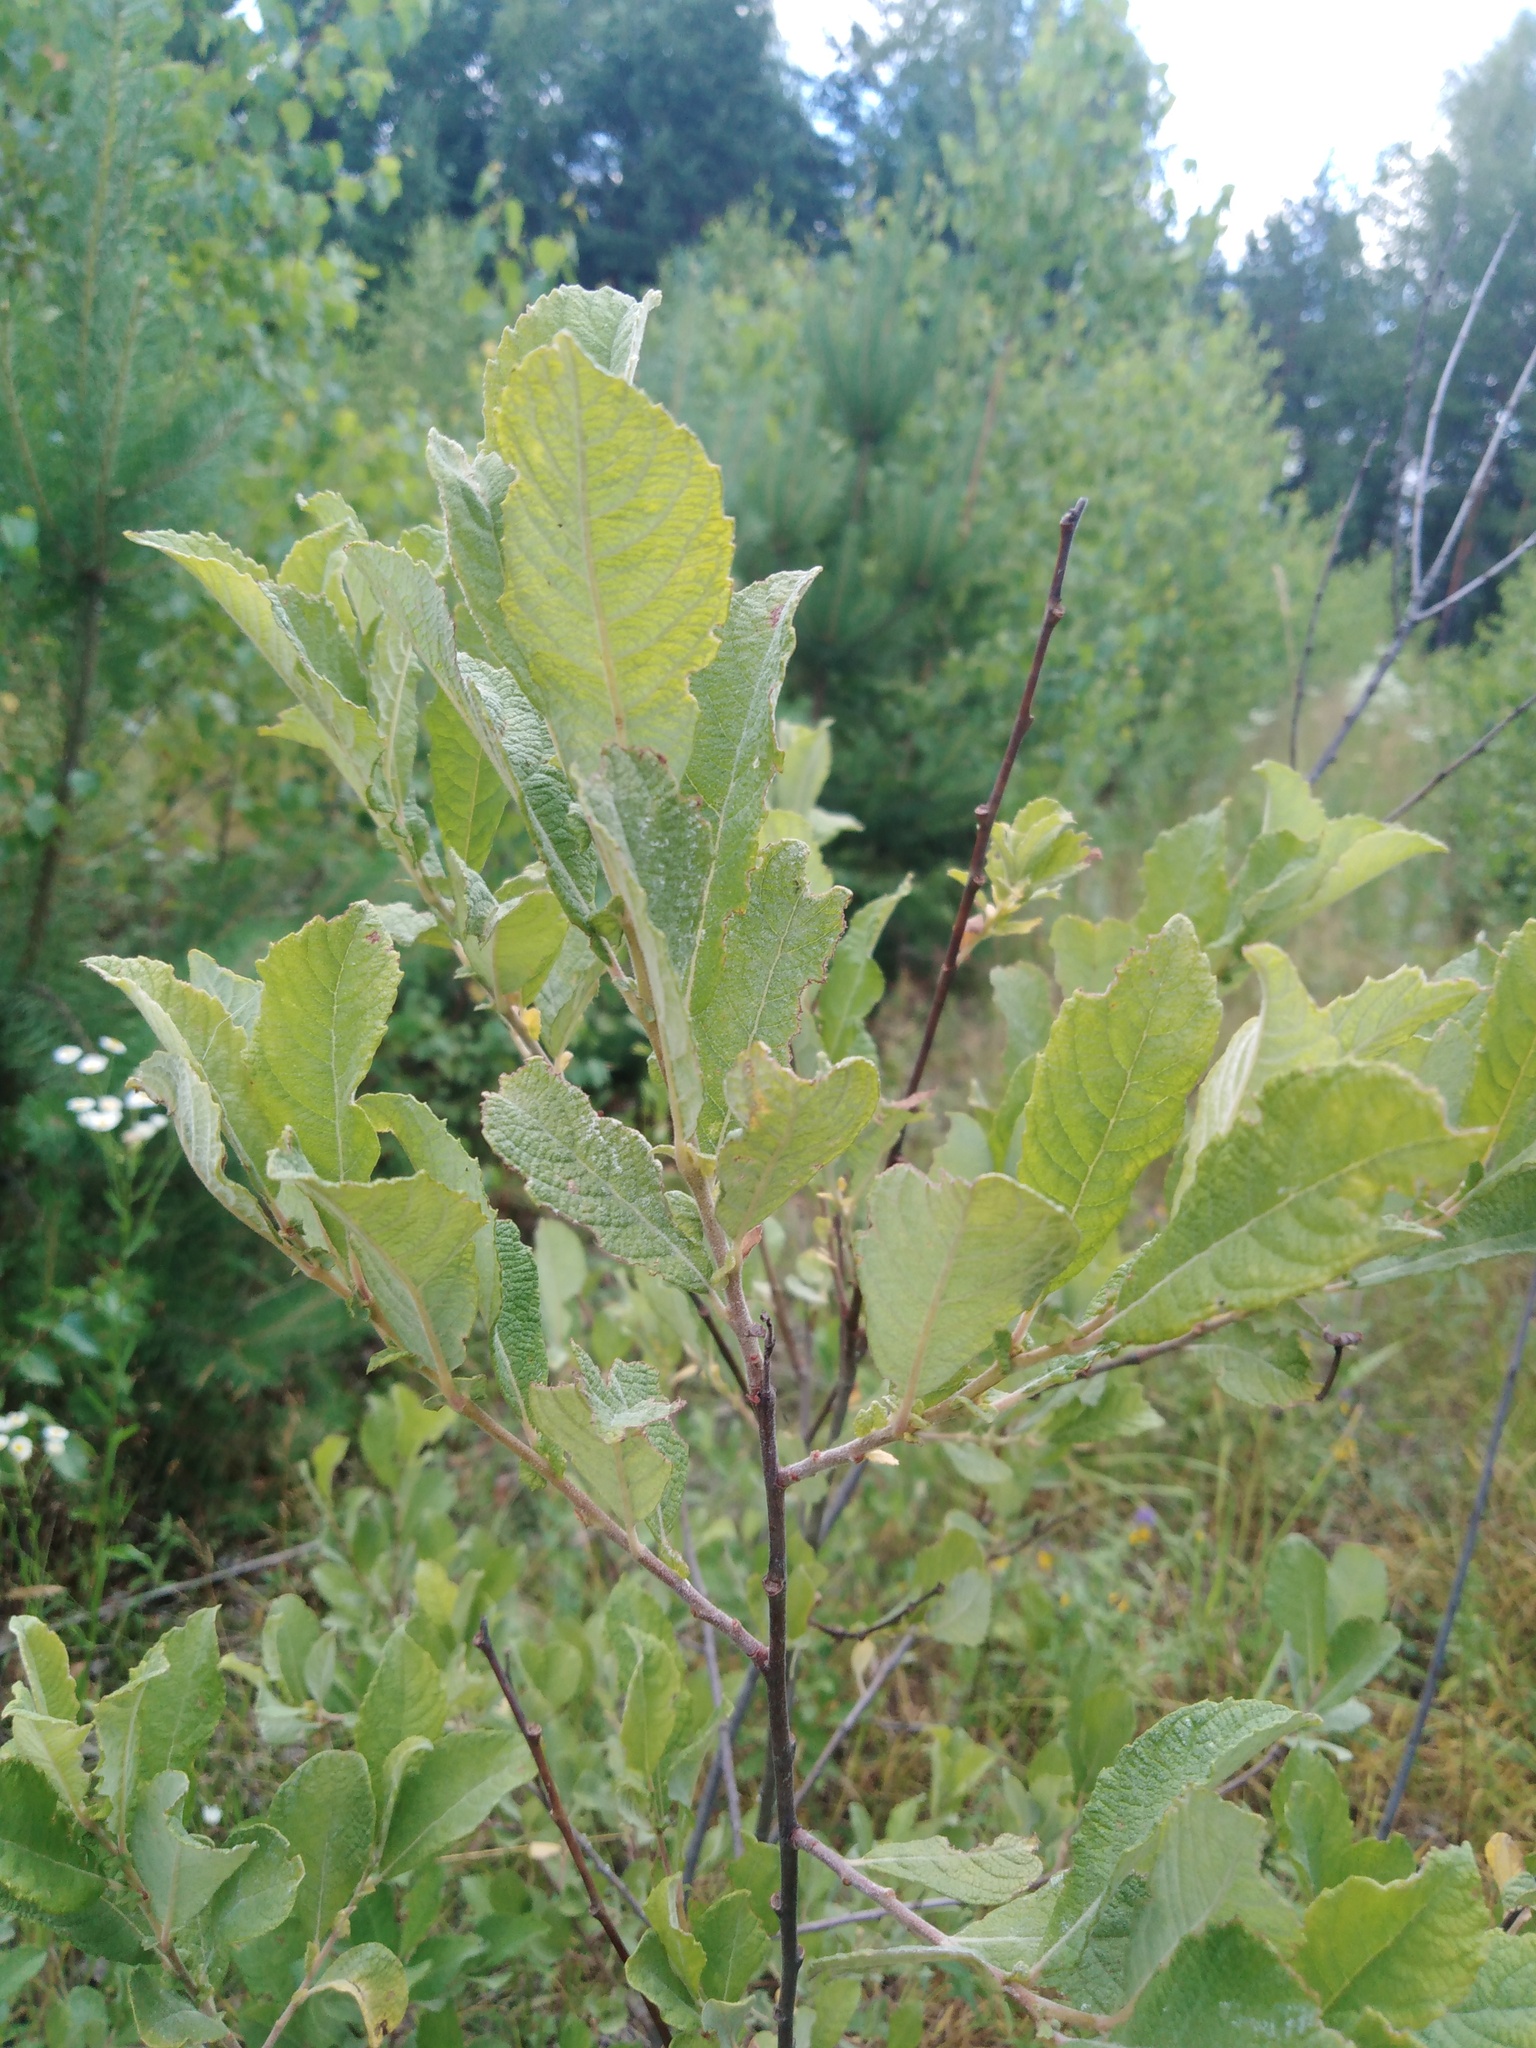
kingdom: Plantae
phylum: Tracheophyta
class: Magnoliopsida
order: Malpighiales
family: Salicaceae
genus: Salix
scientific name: Salix aurita
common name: Eared willow
